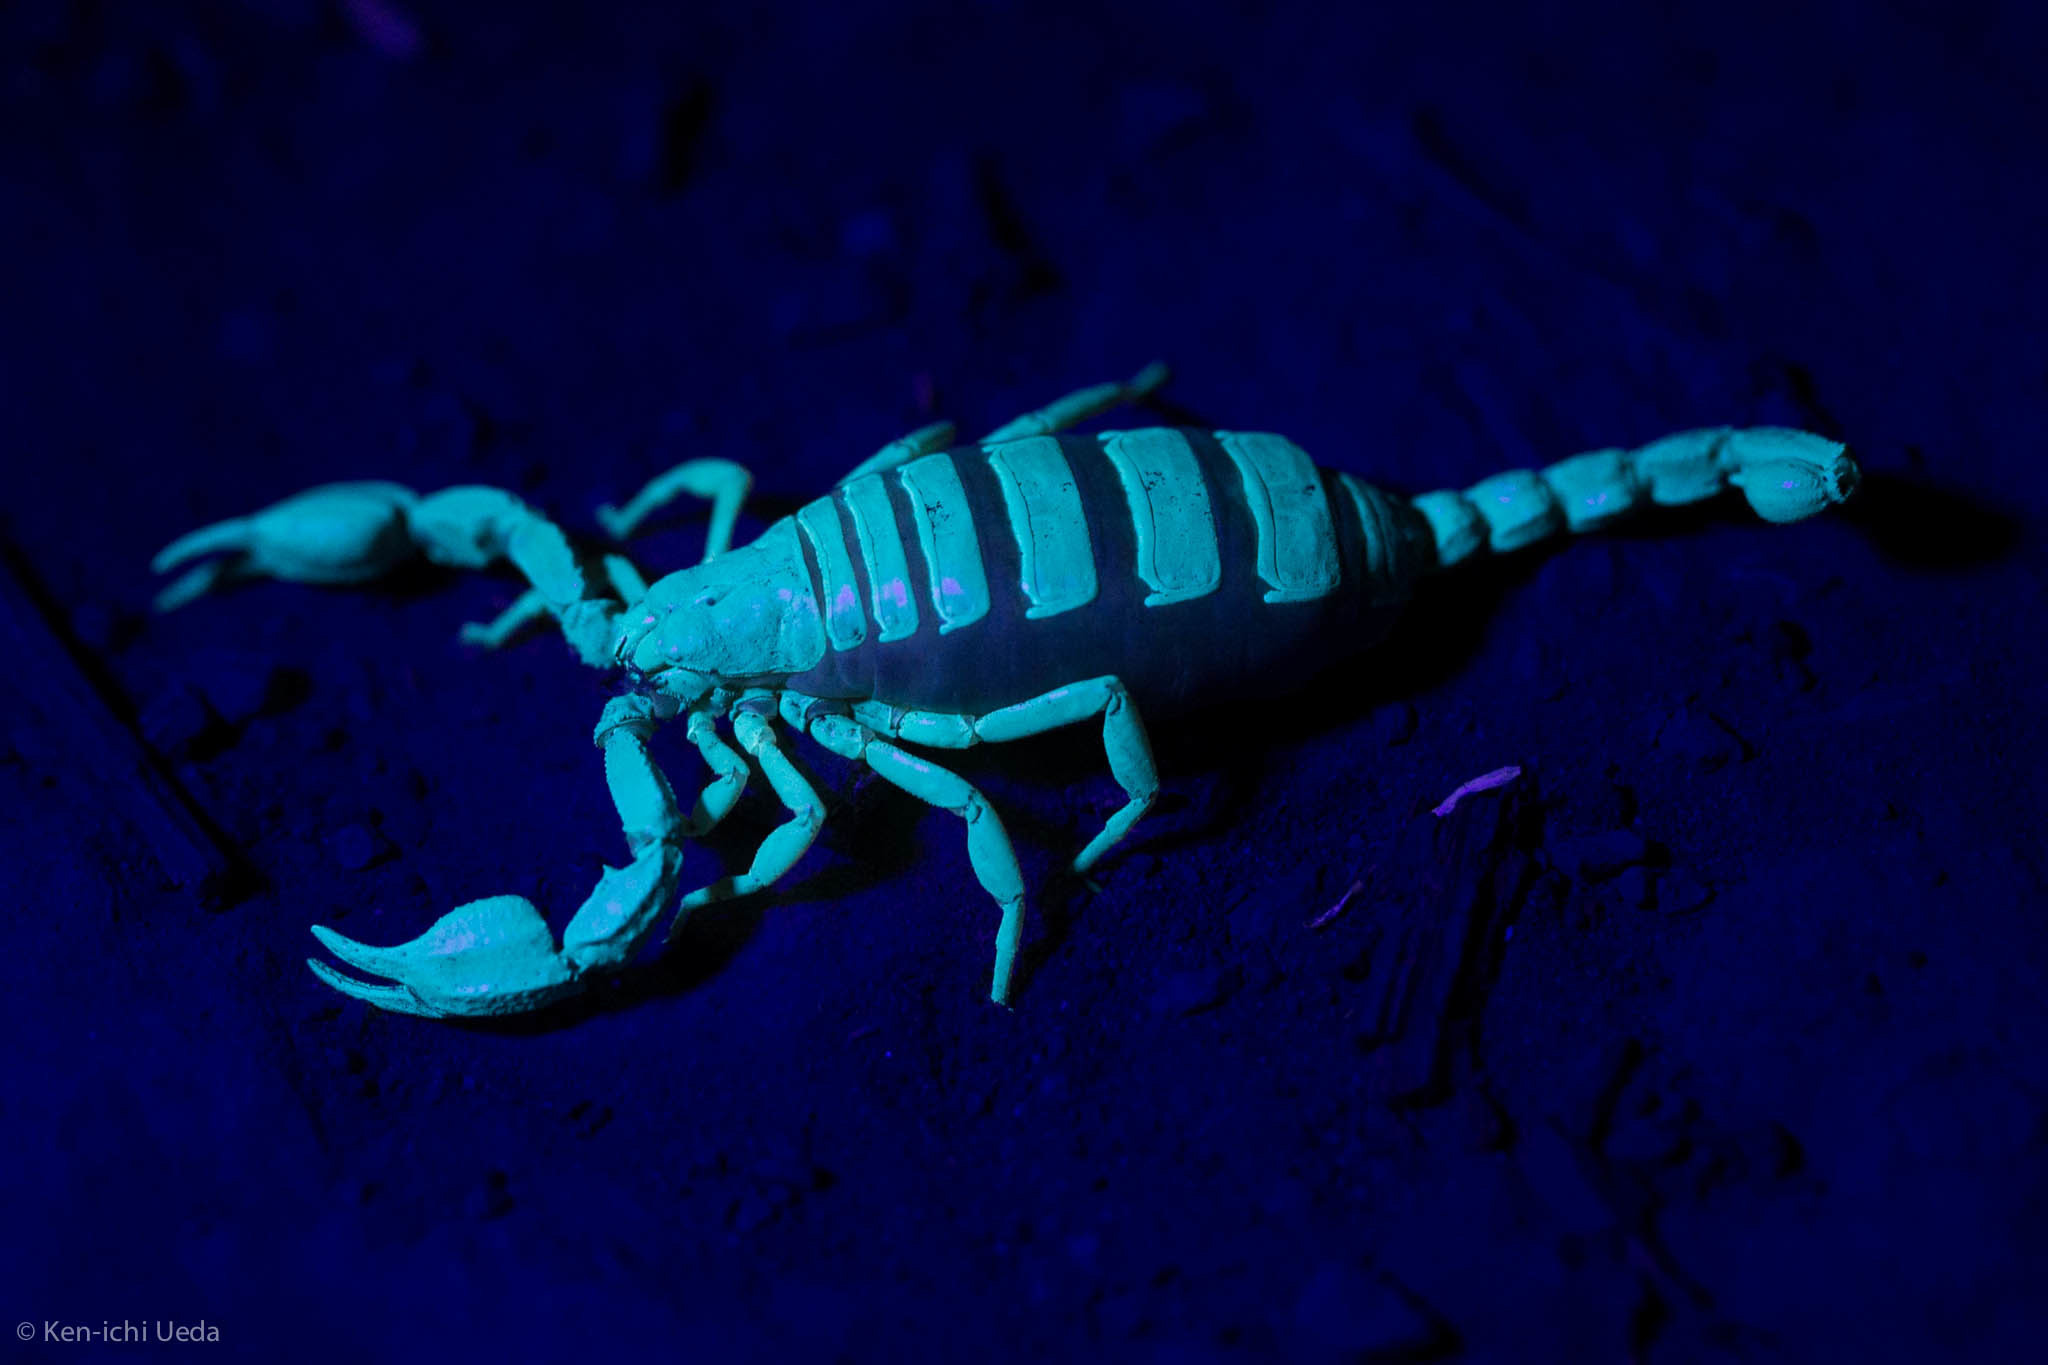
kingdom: Animalia
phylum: Arthropoda
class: Arachnida
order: Scorpiones
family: Chactidae
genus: Uroctonus
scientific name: Uroctonus mordax
